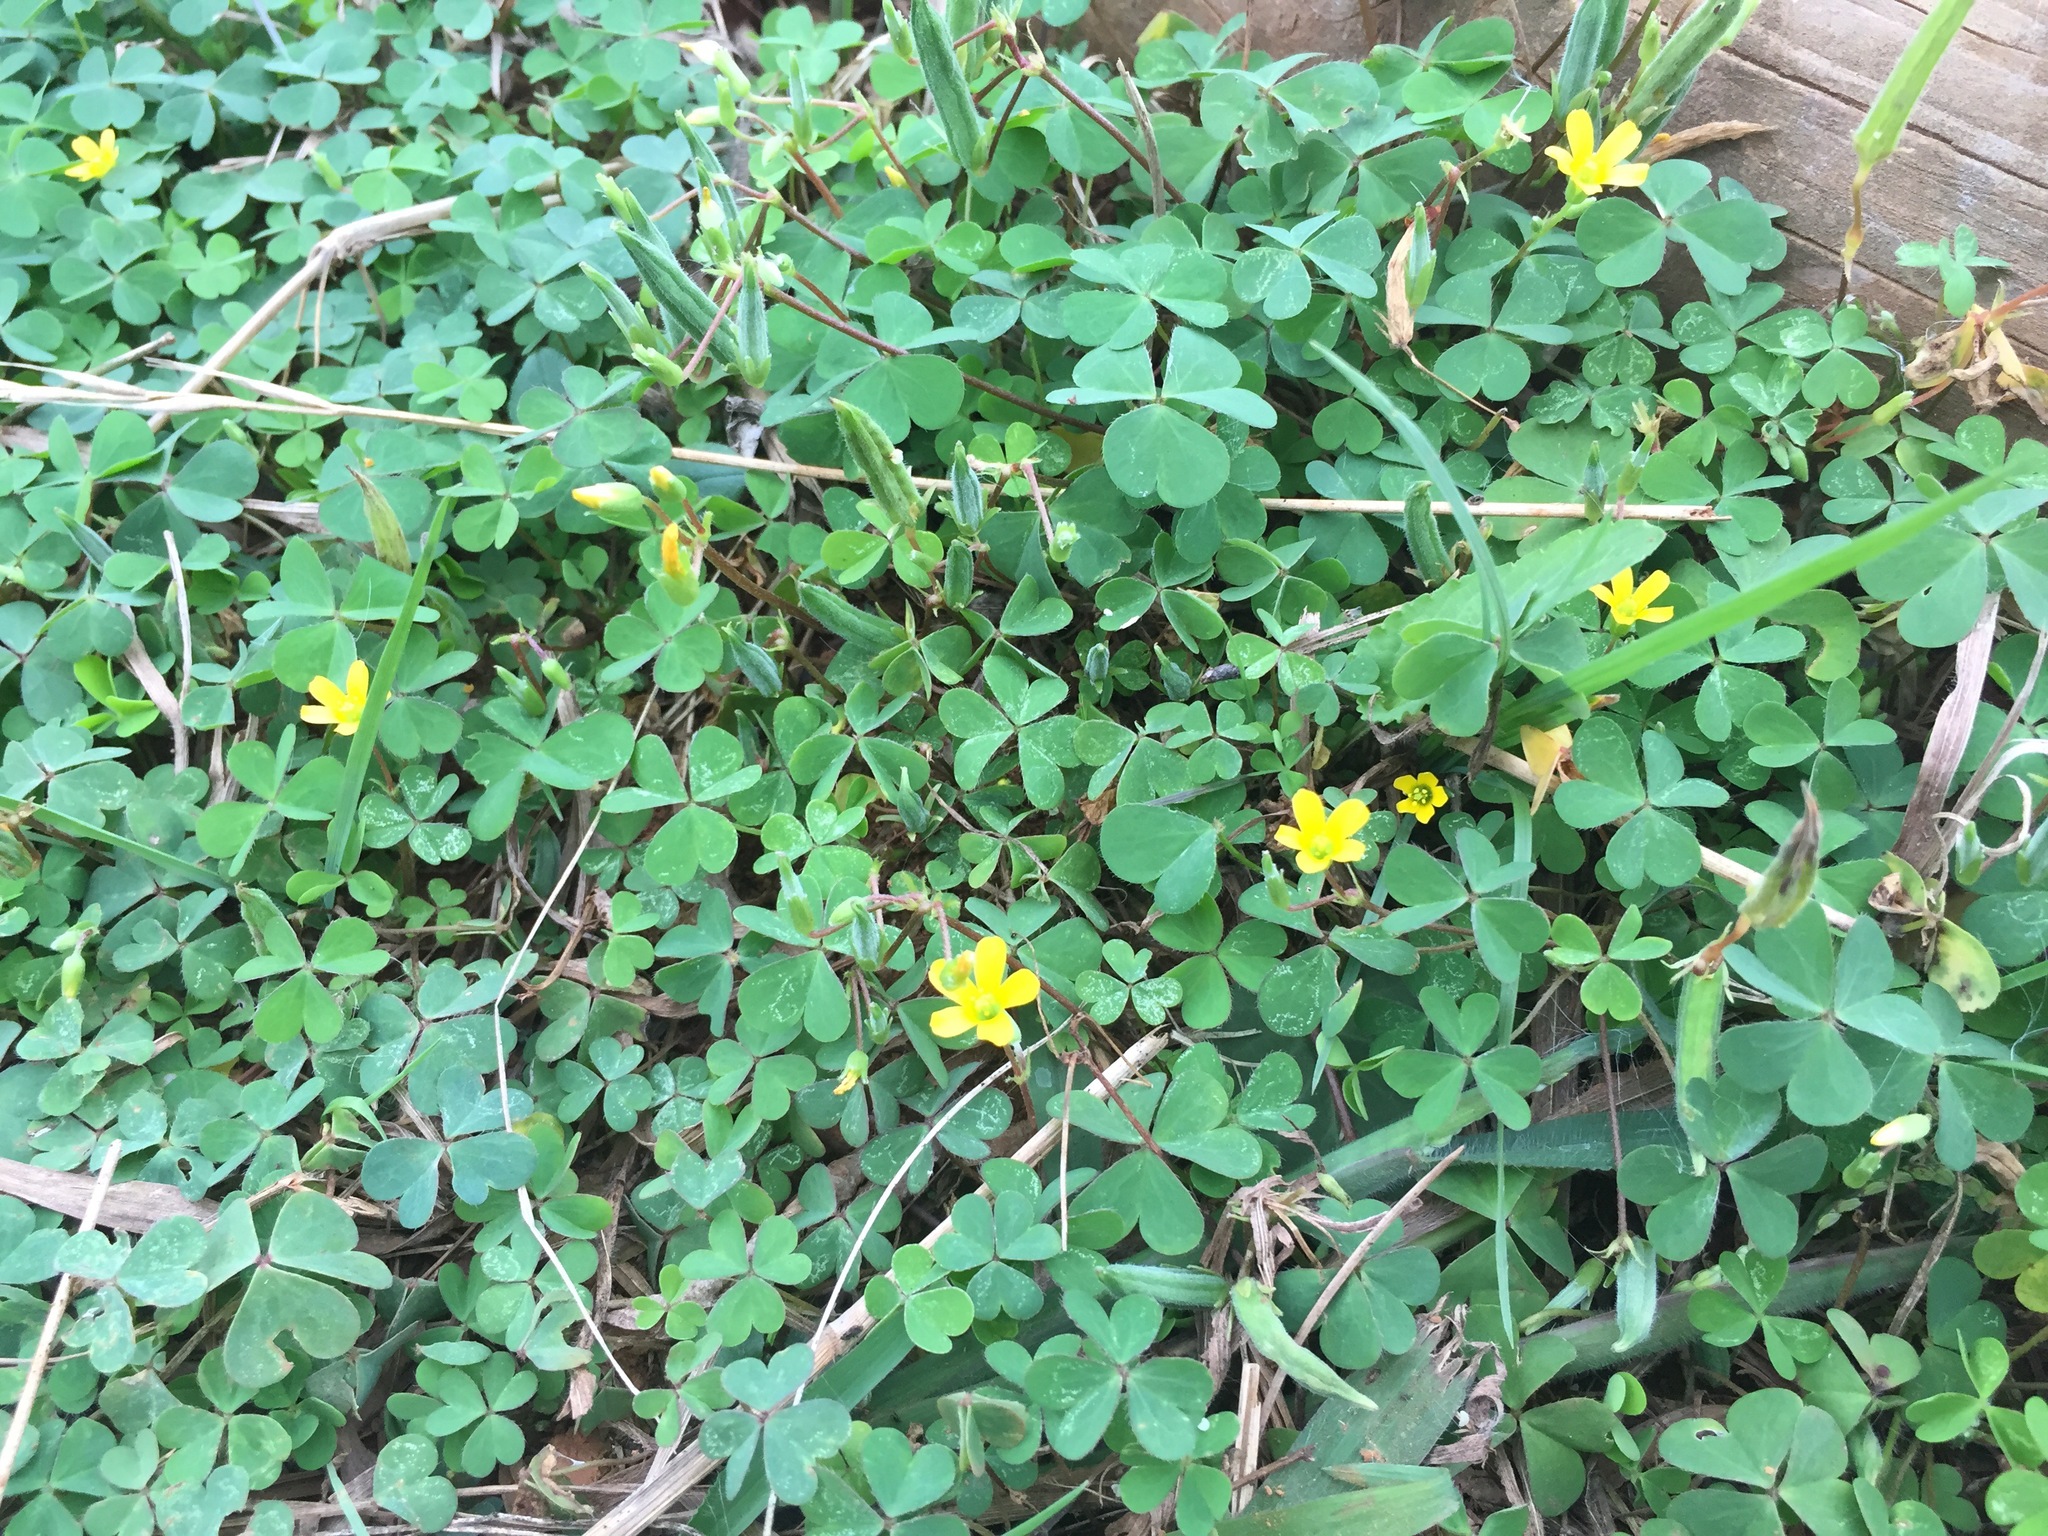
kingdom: Plantae
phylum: Tracheophyta
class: Magnoliopsida
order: Oxalidales
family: Oxalidaceae
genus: Oxalis
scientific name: Oxalis corniculata
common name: Procumbent yellow-sorrel
